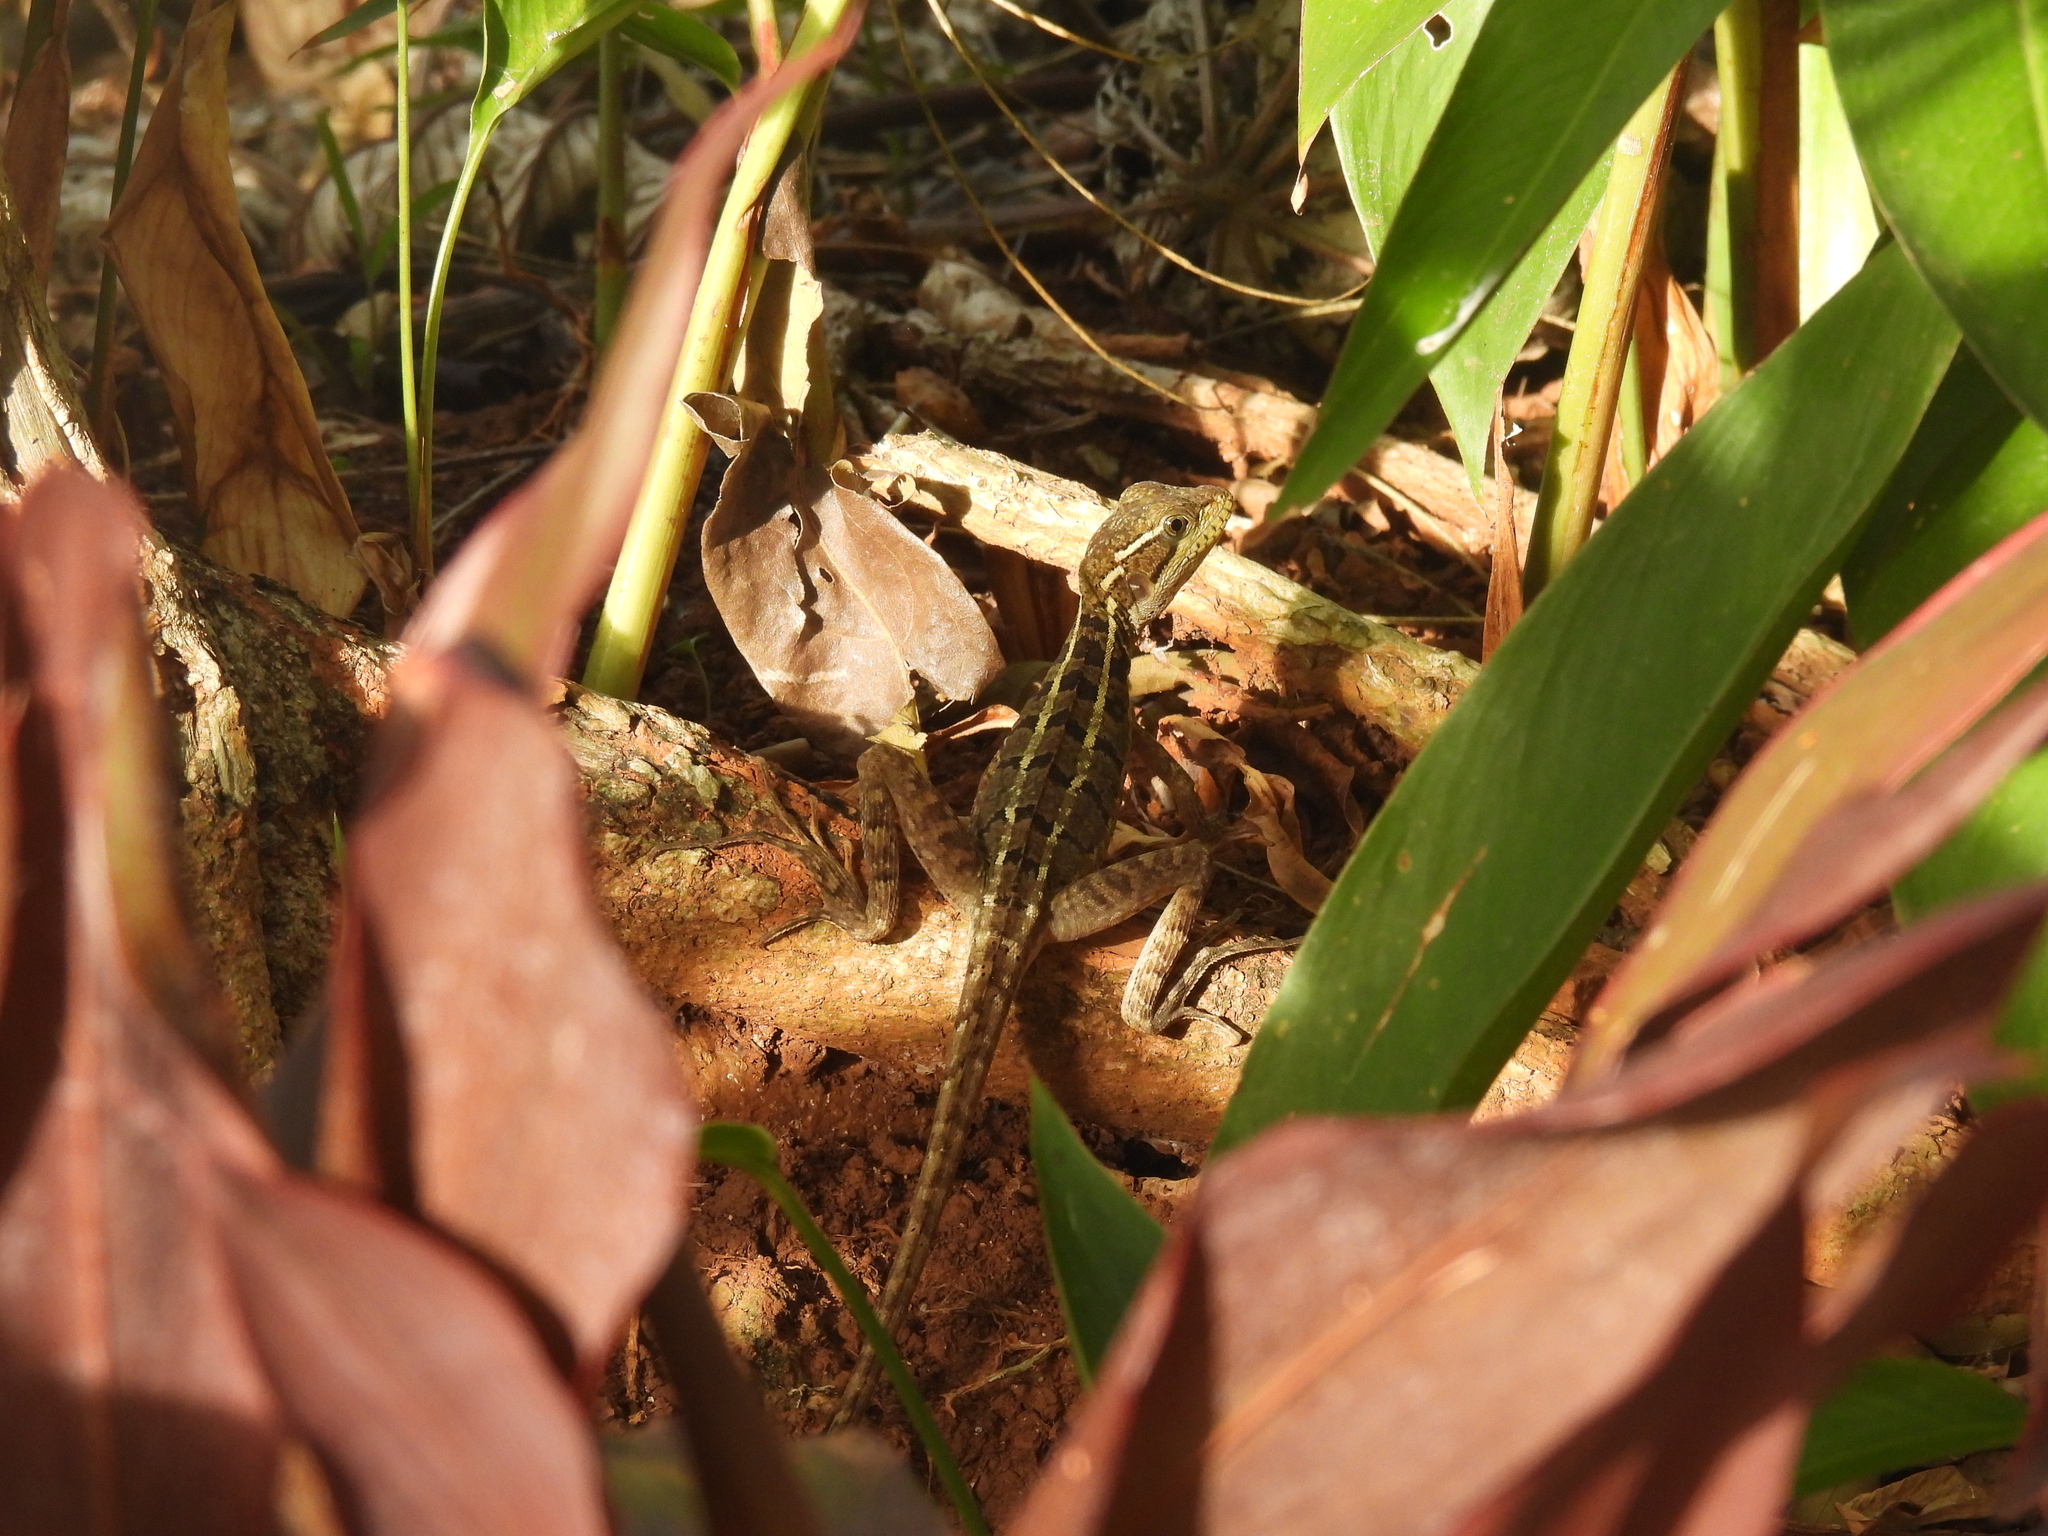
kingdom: Animalia
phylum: Chordata
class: Squamata
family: Corytophanidae
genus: Basiliscus
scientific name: Basiliscus vittatus
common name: Brown basilisk
